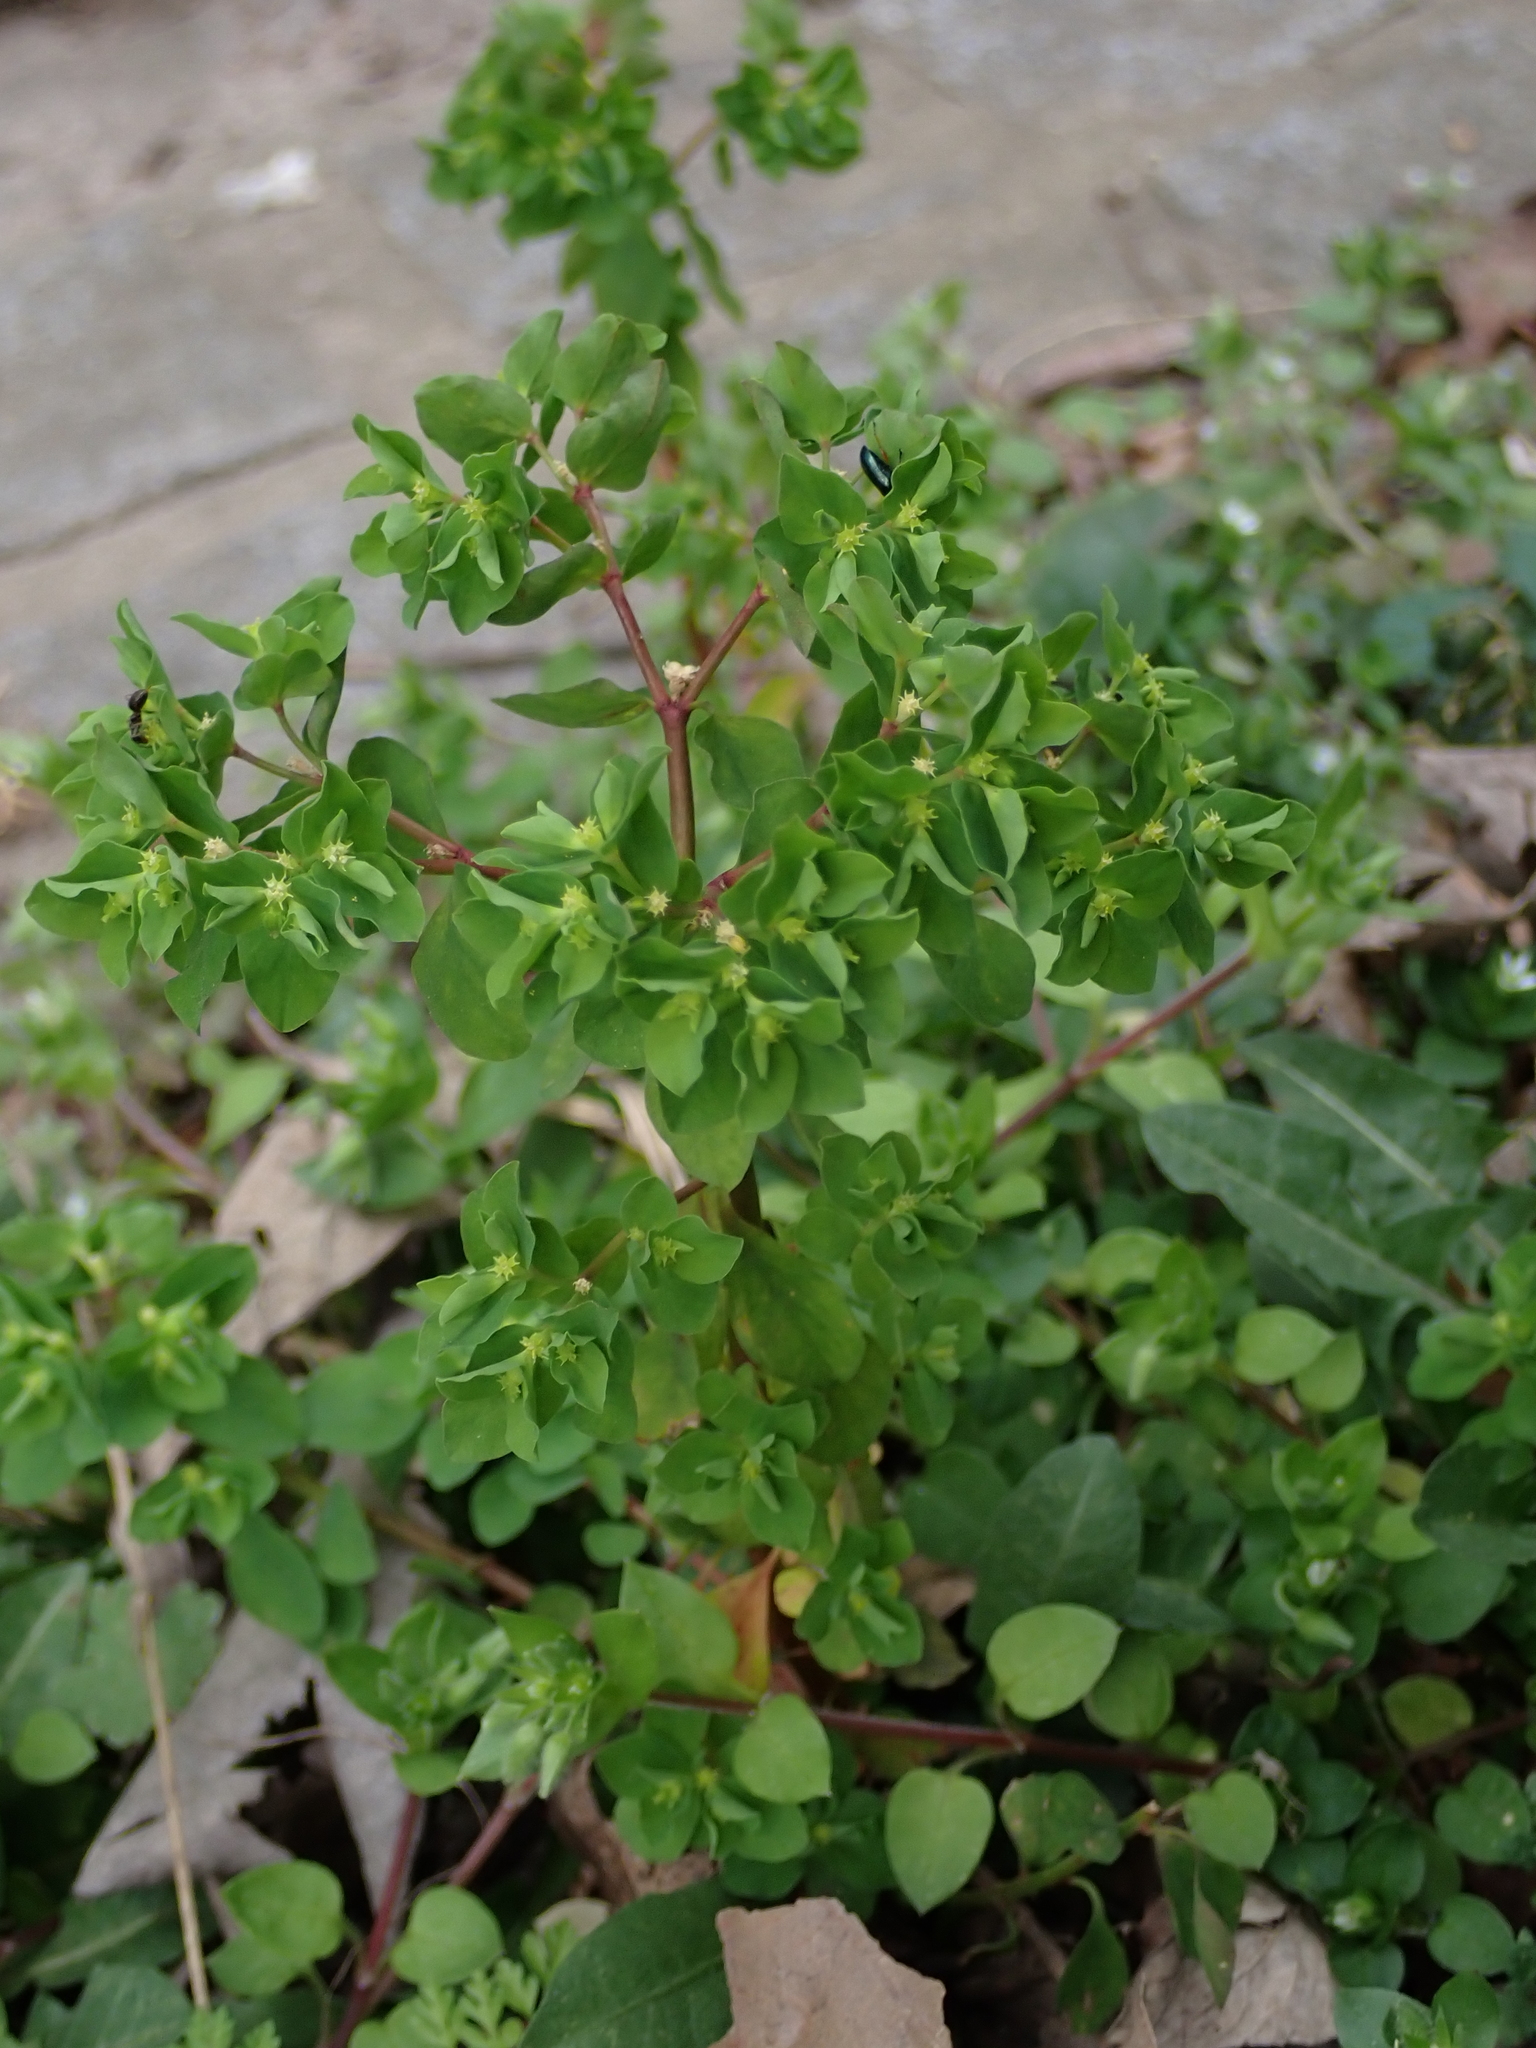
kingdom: Plantae
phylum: Tracheophyta
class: Magnoliopsida
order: Malpighiales
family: Euphorbiaceae
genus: Euphorbia
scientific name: Euphorbia peplus
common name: Petty spurge
